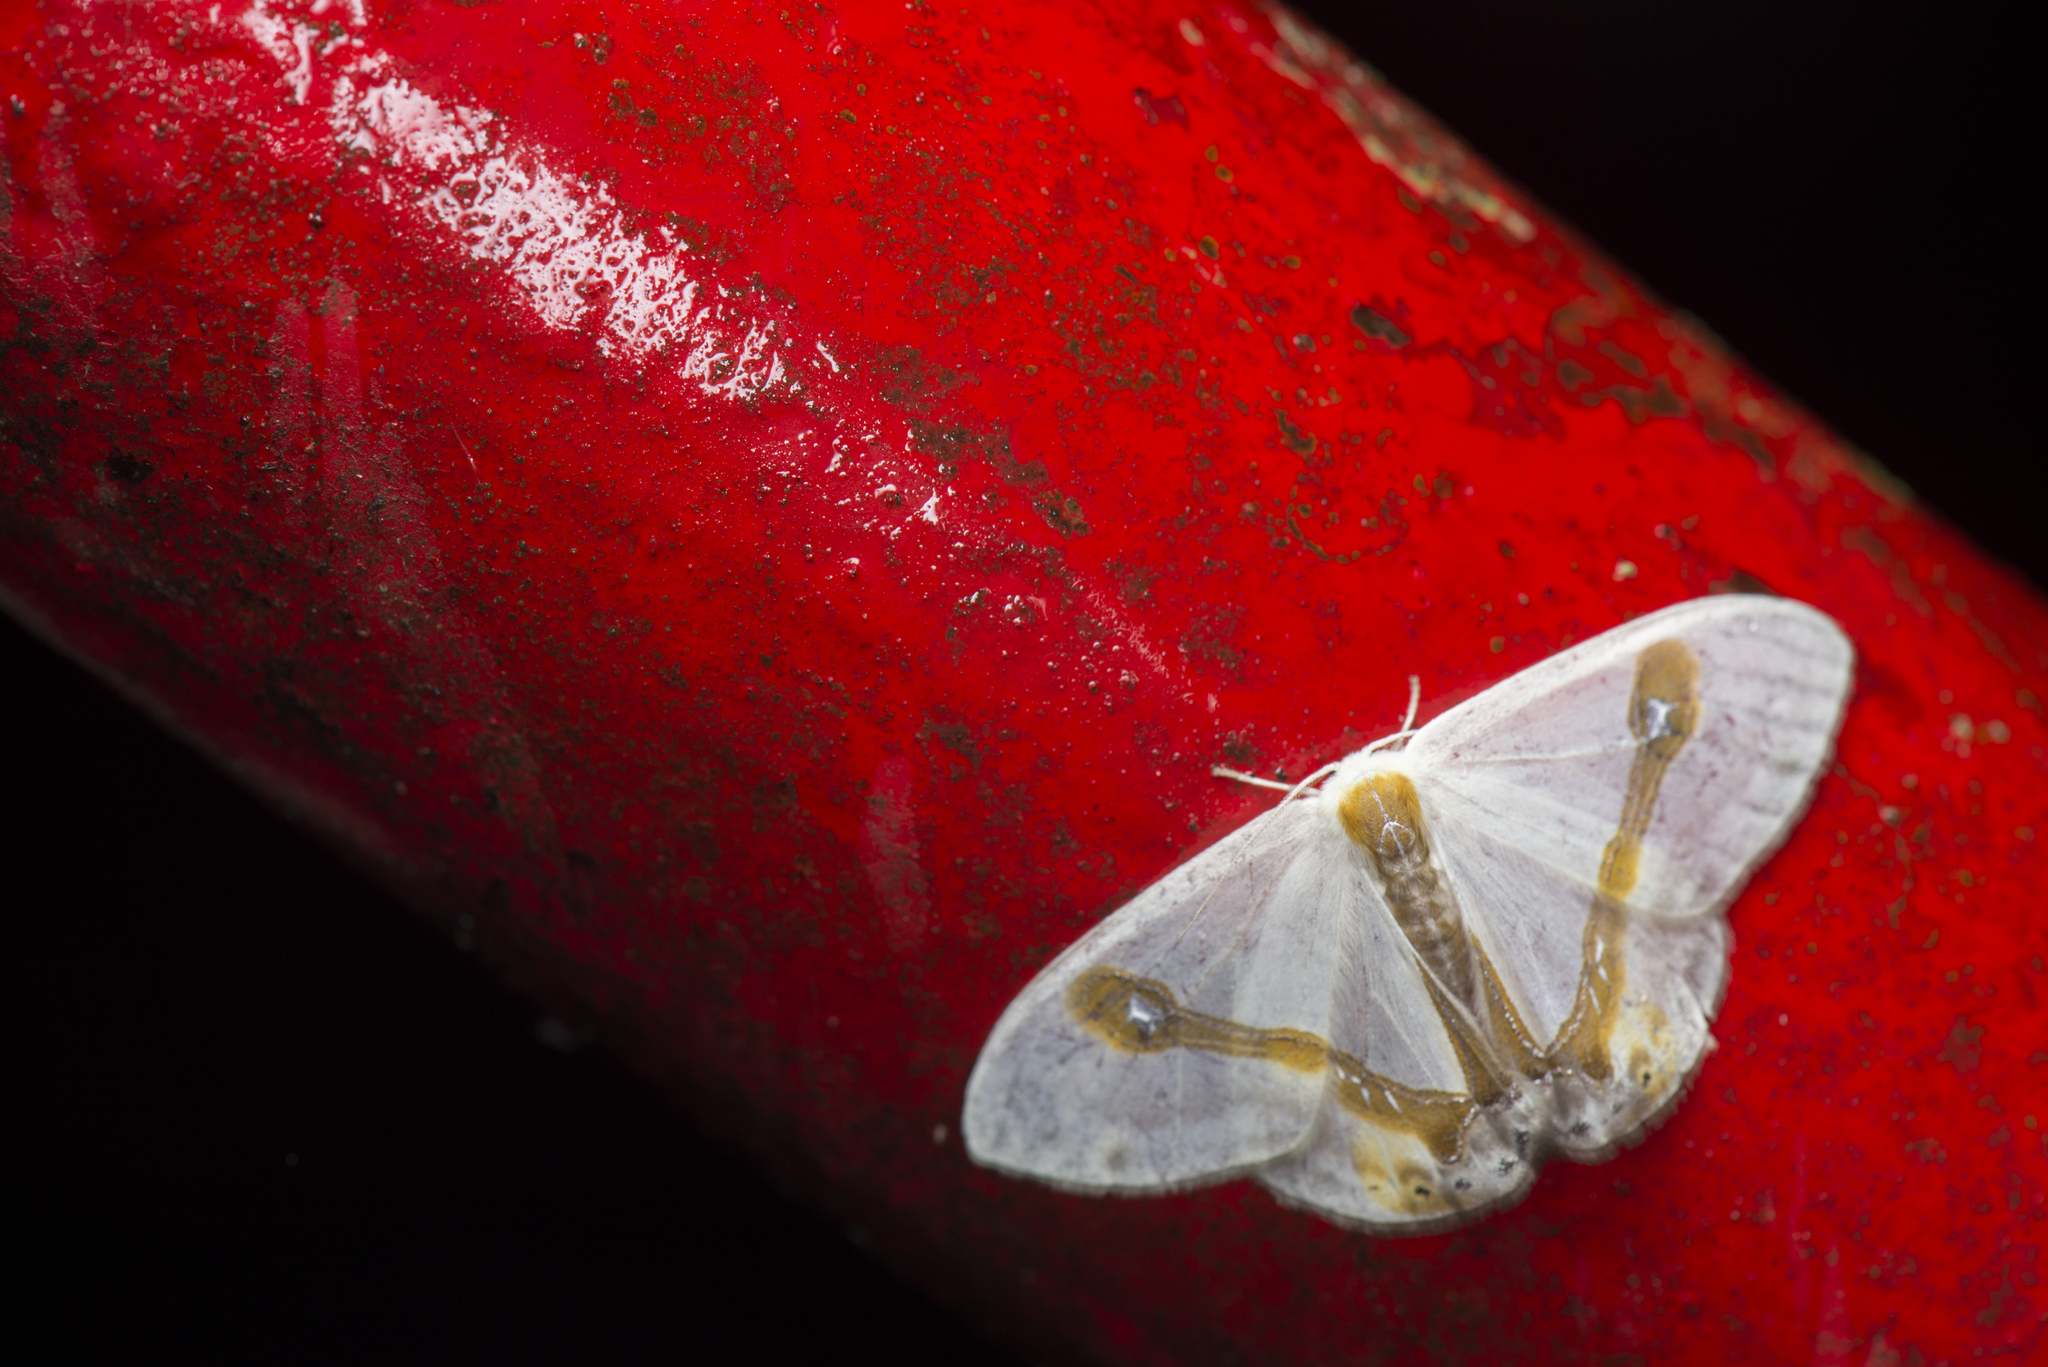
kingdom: Animalia
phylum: Arthropoda
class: Insecta
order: Lepidoptera
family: Drepanidae
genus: Macrocilix
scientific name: Macrocilix mysticata
